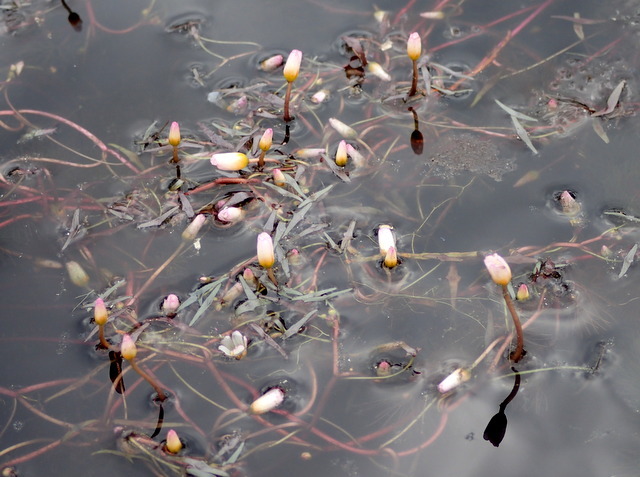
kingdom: Plantae
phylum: Tracheophyta
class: Magnoliopsida
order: Nymphaeales
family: Cabombaceae
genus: Cabomba
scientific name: Cabomba caroliniana
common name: Fanwort
